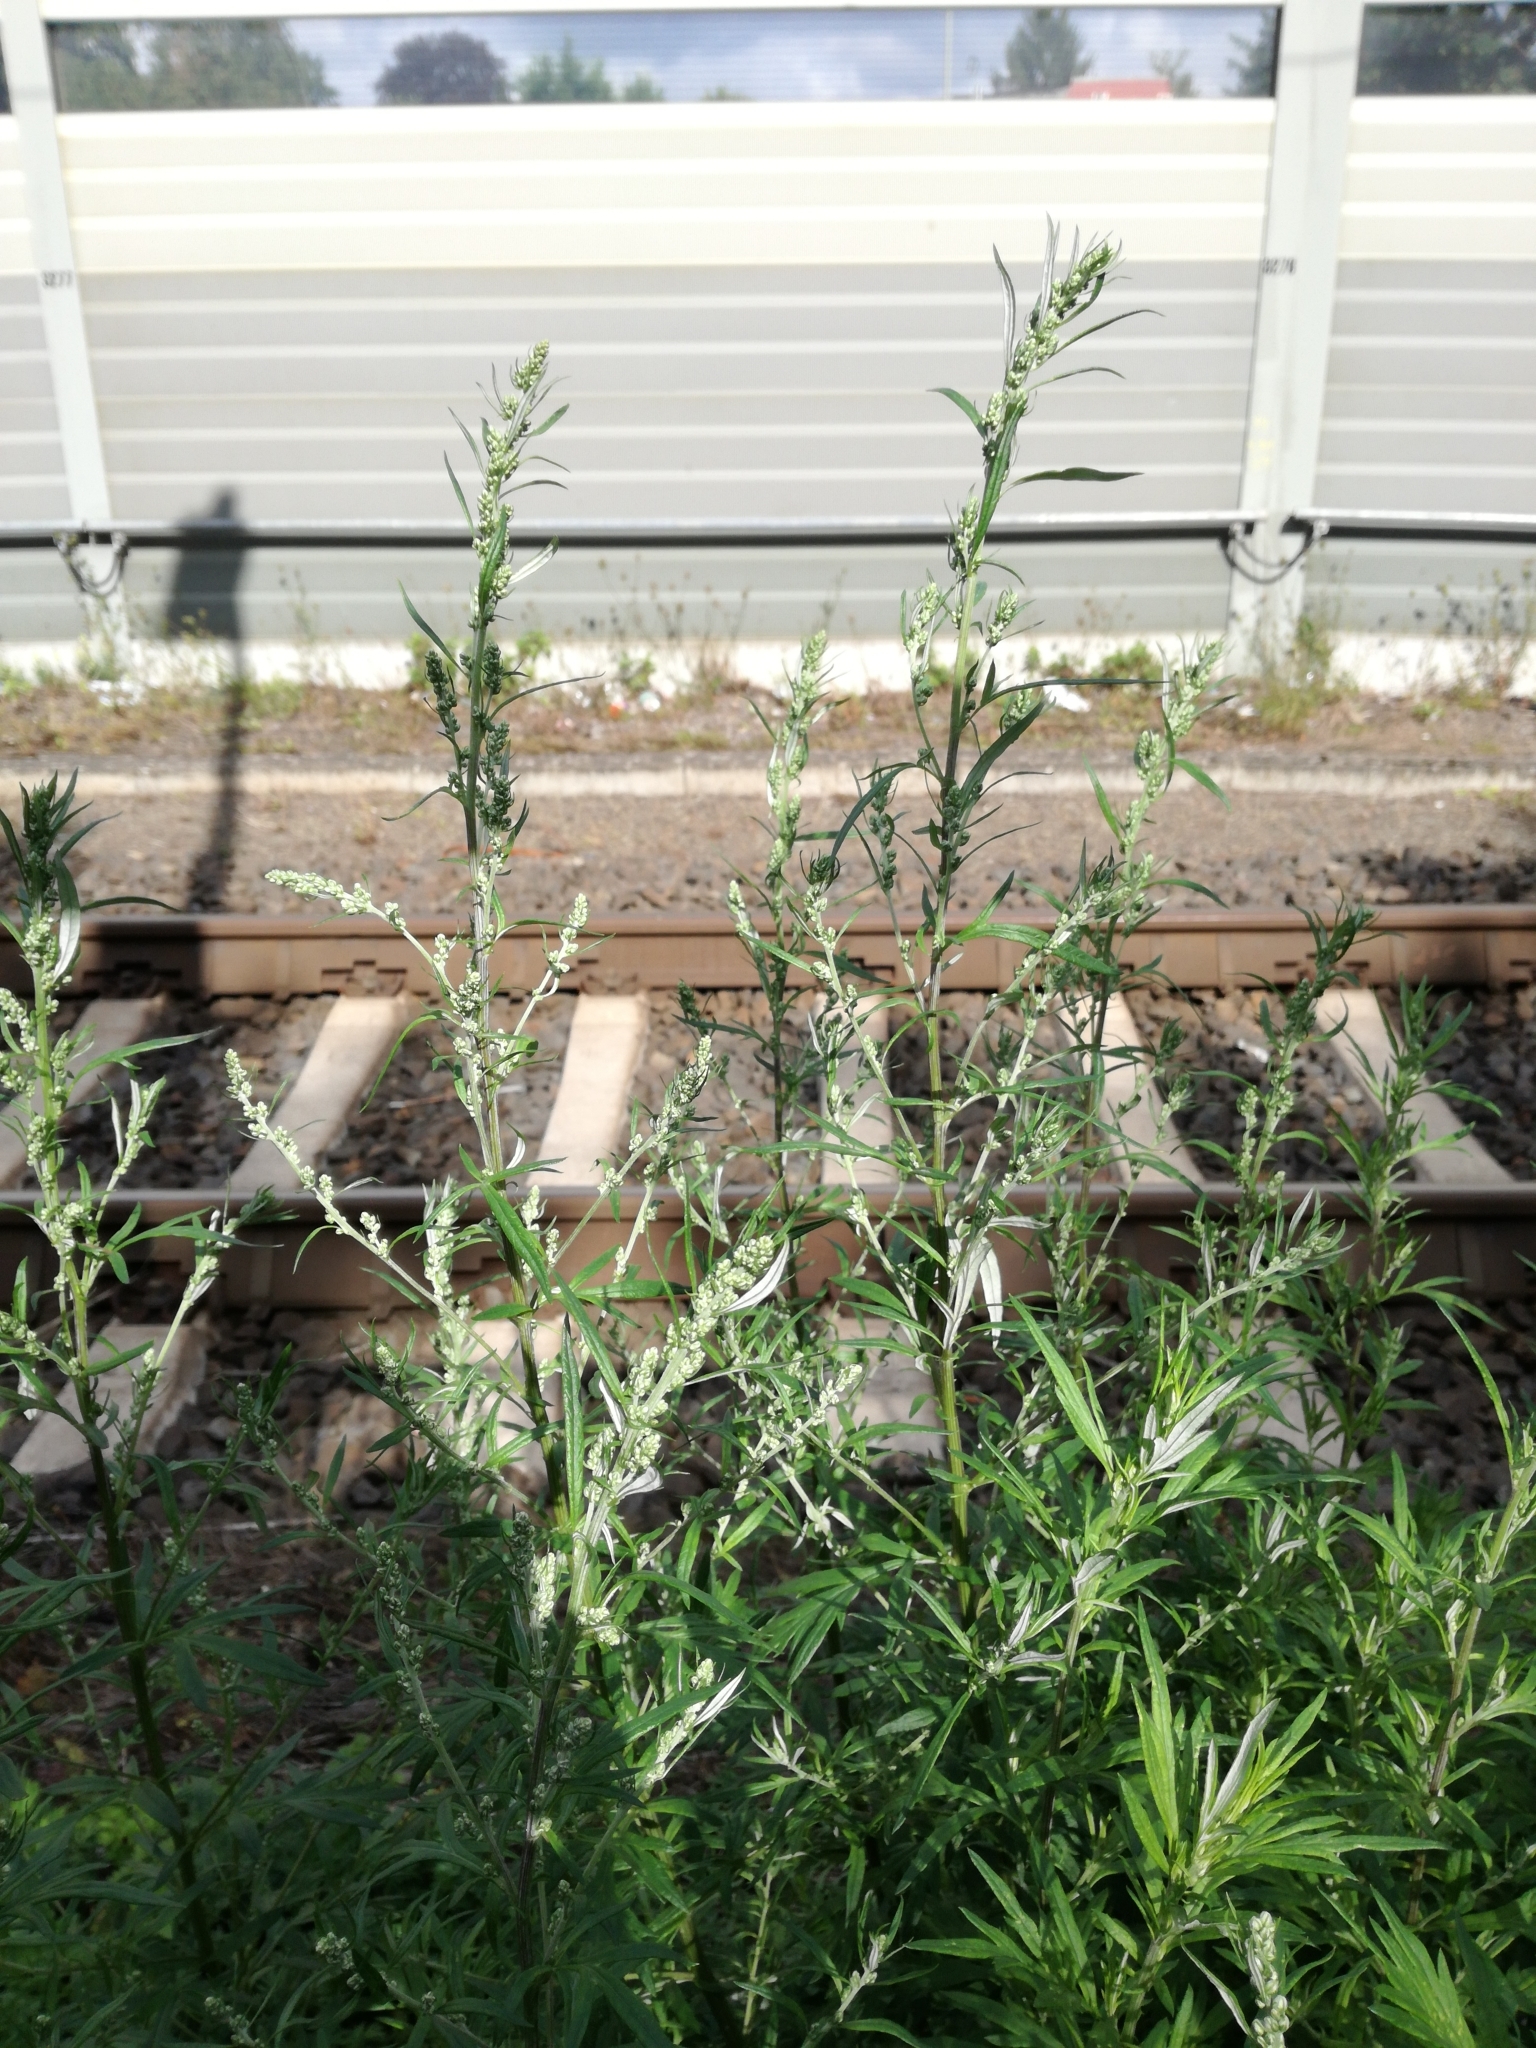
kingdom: Plantae
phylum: Tracheophyta
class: Magnoliopsida
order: Asterales
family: Asteraceae
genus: Artemisia
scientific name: Artemisia vulgaris
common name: Mugwort
